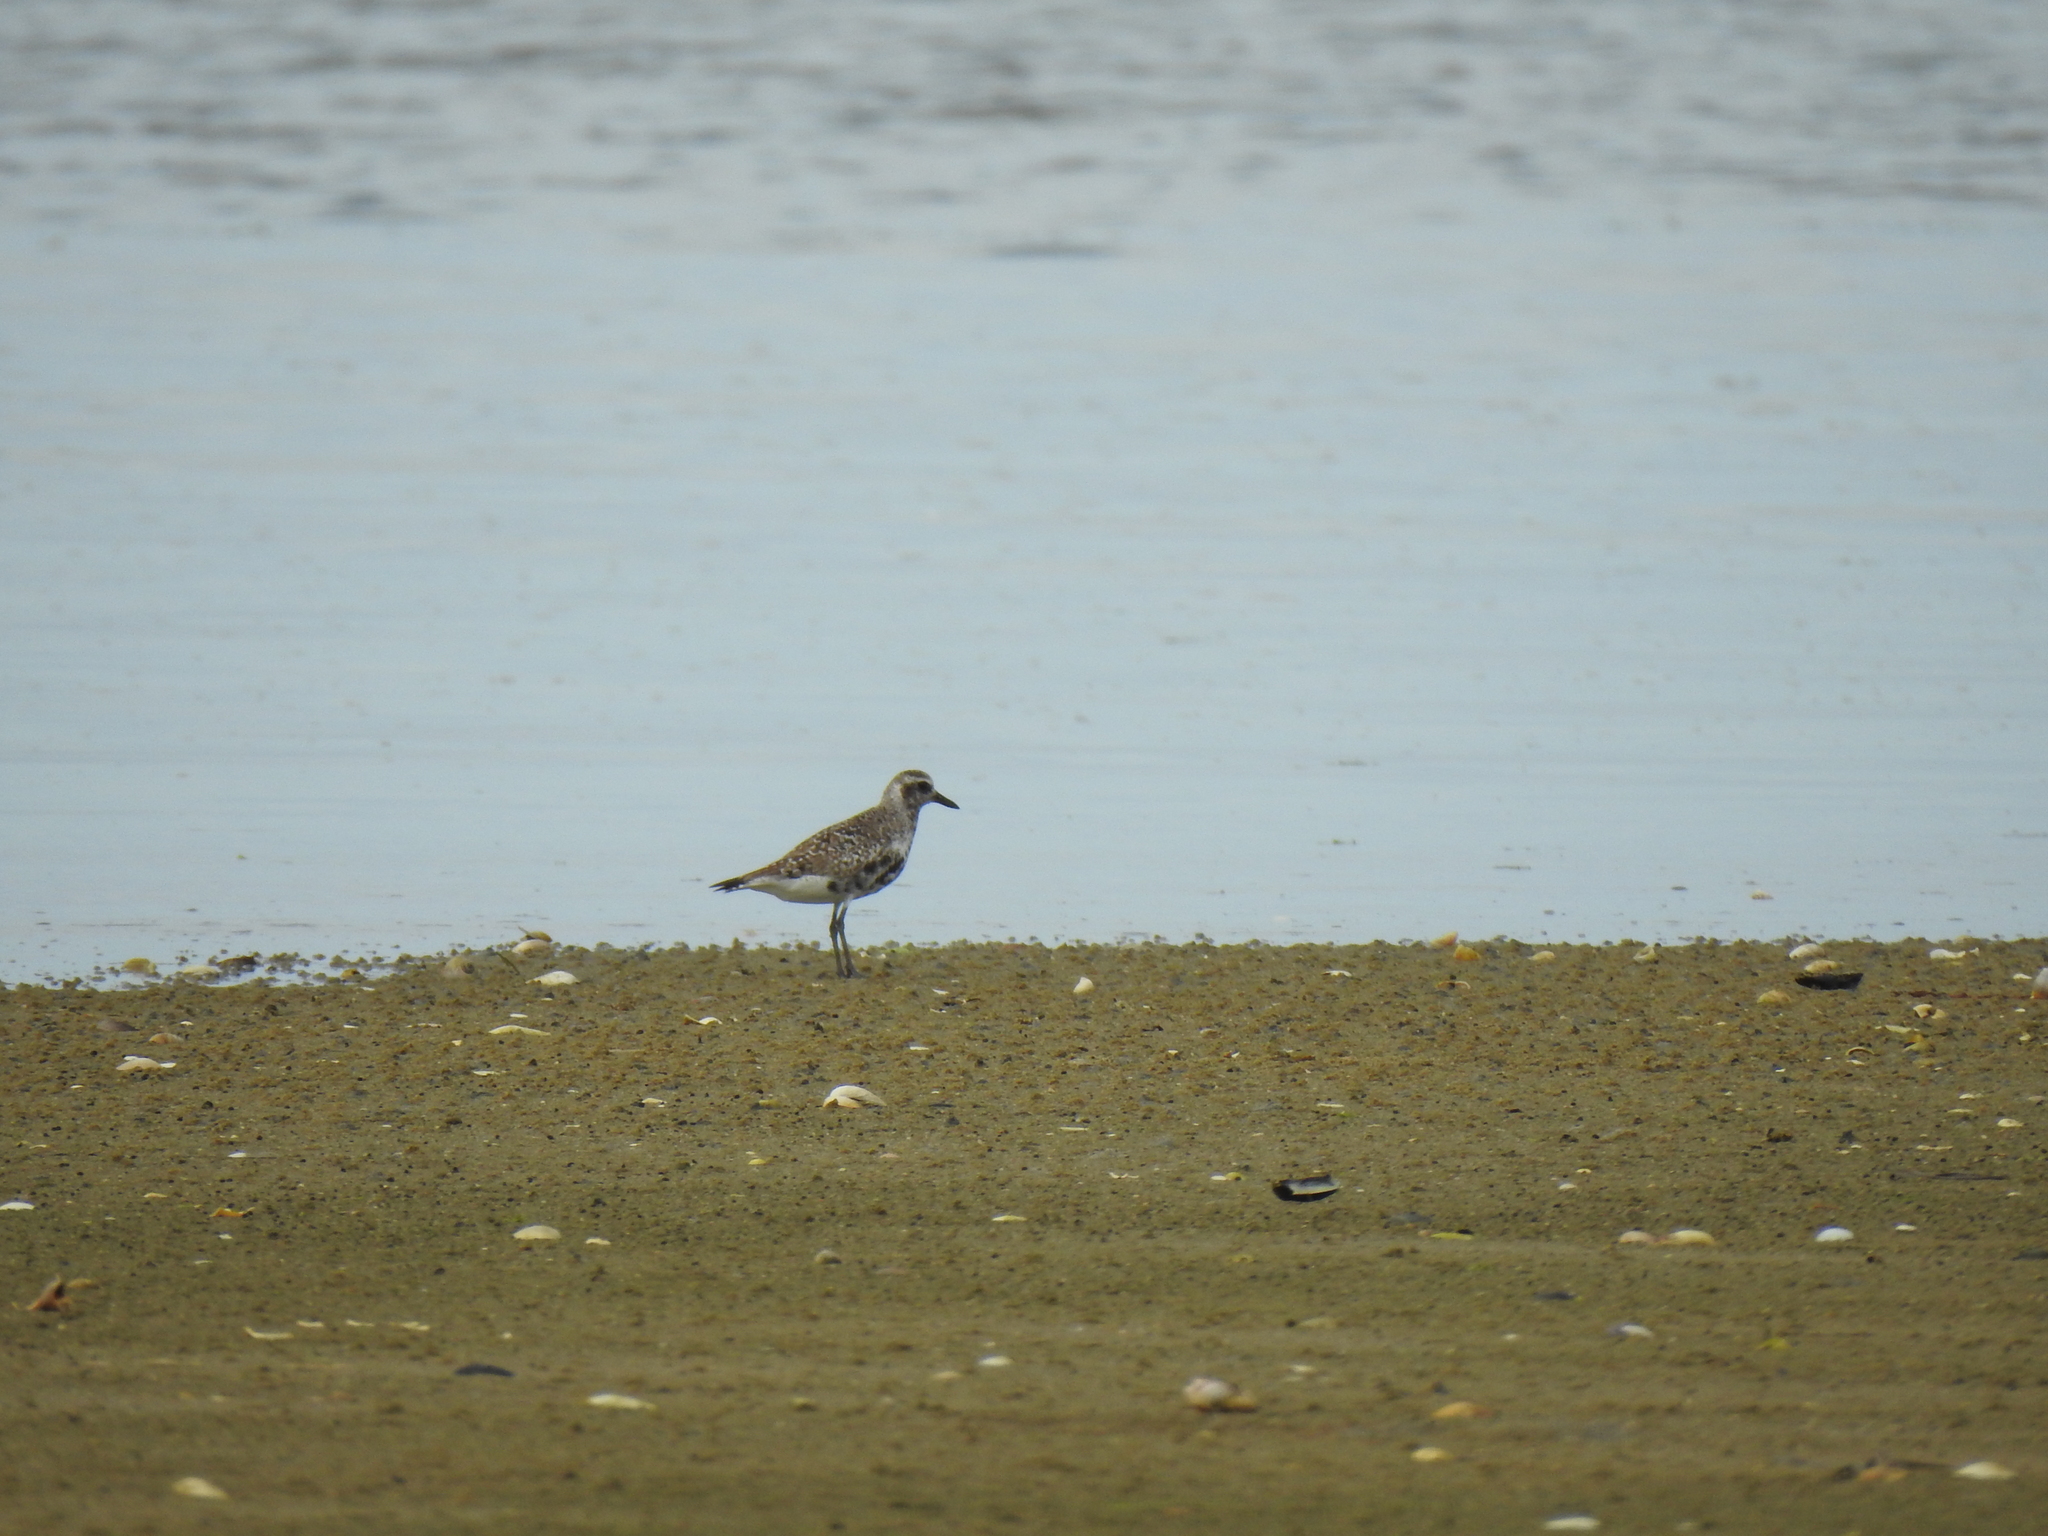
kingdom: Animalia
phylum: Chordata
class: Aves
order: Charadriiformes
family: Charadriidae
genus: Pluvialis
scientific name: Pluvialis squatarola
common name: Grey plover
